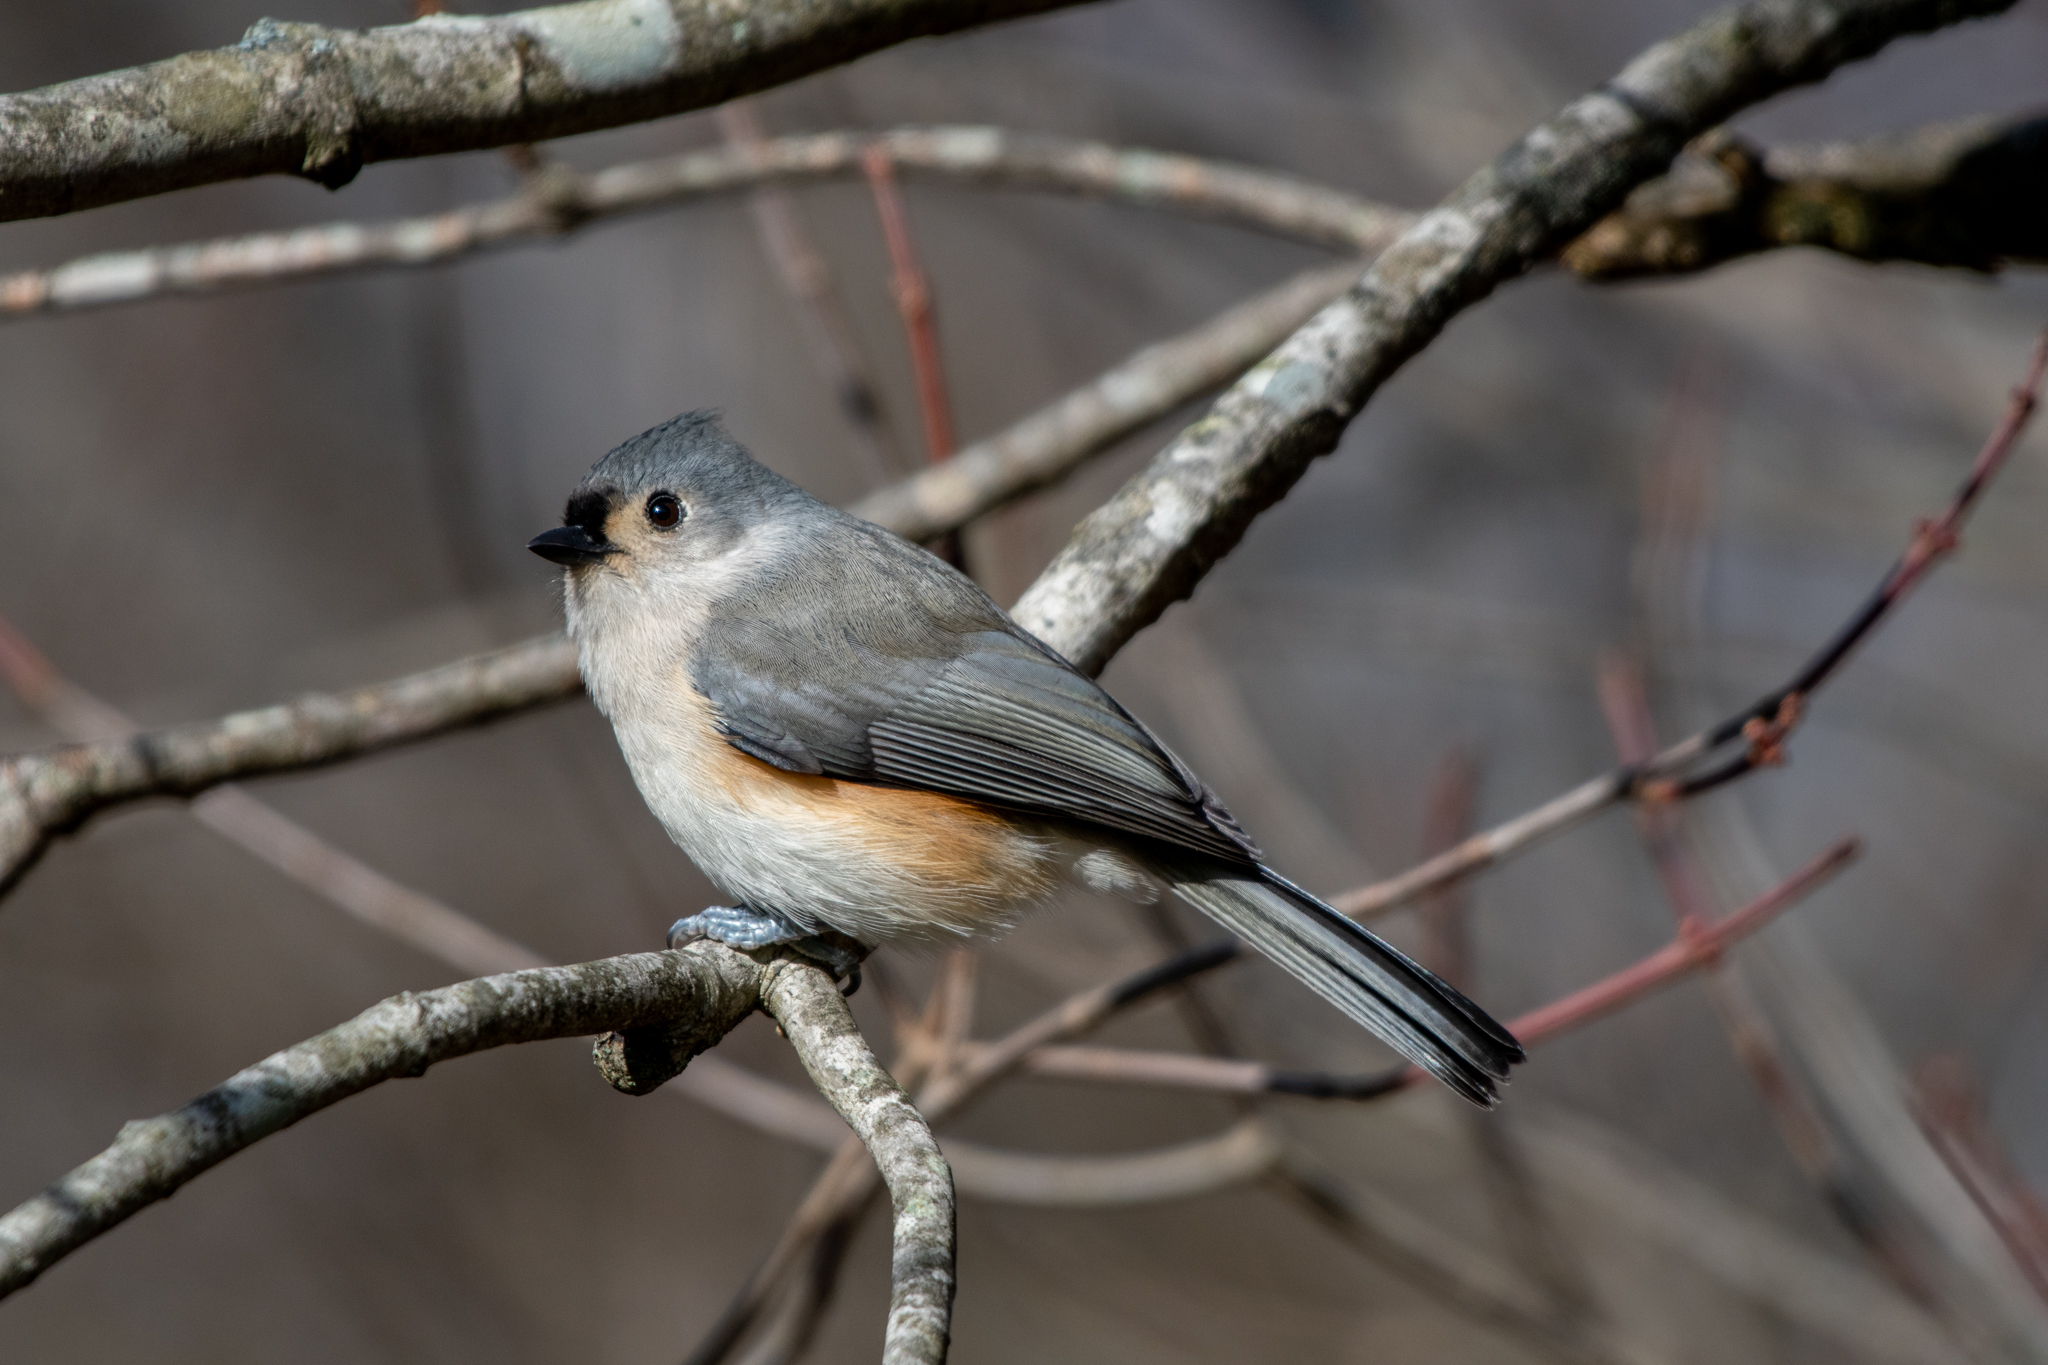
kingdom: Animalia
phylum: Chordata
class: Aves
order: Passeriformes
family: Paridae
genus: Baeolophus
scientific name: Baeolophus bicolor
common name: Tufted titmouse
